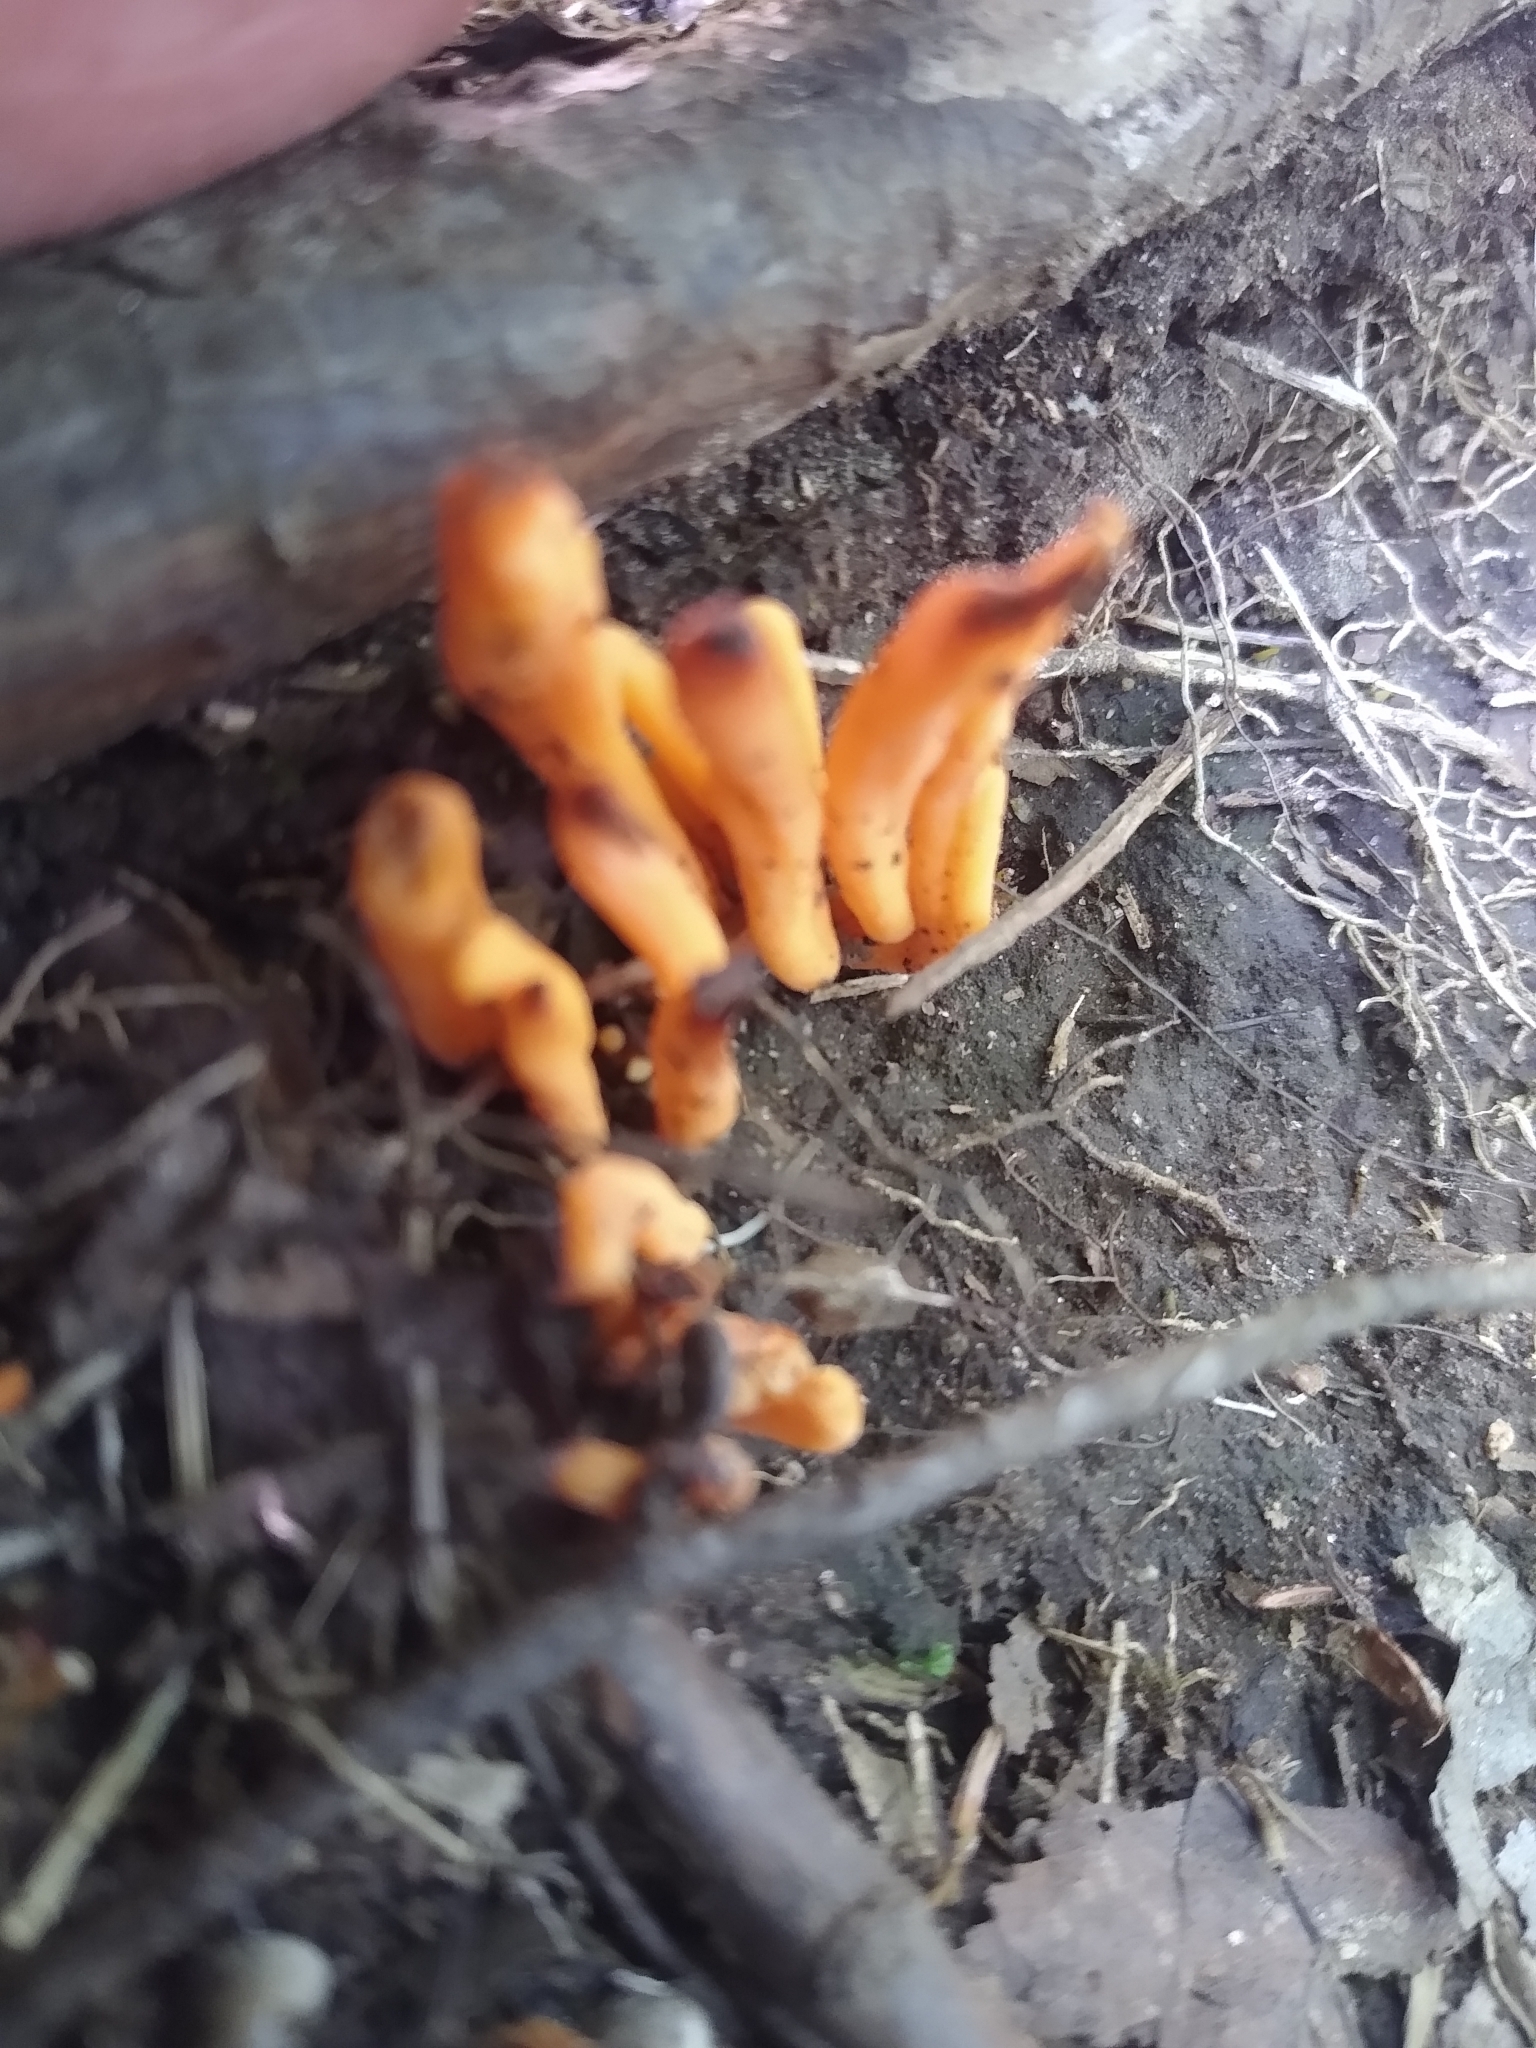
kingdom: Fungi
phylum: Basidiomycota
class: Agaricomycetes
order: Agaricales
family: Clavariaceae
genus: Clavulinopsis
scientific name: Clavulinopsis aurantiocinnabarina
